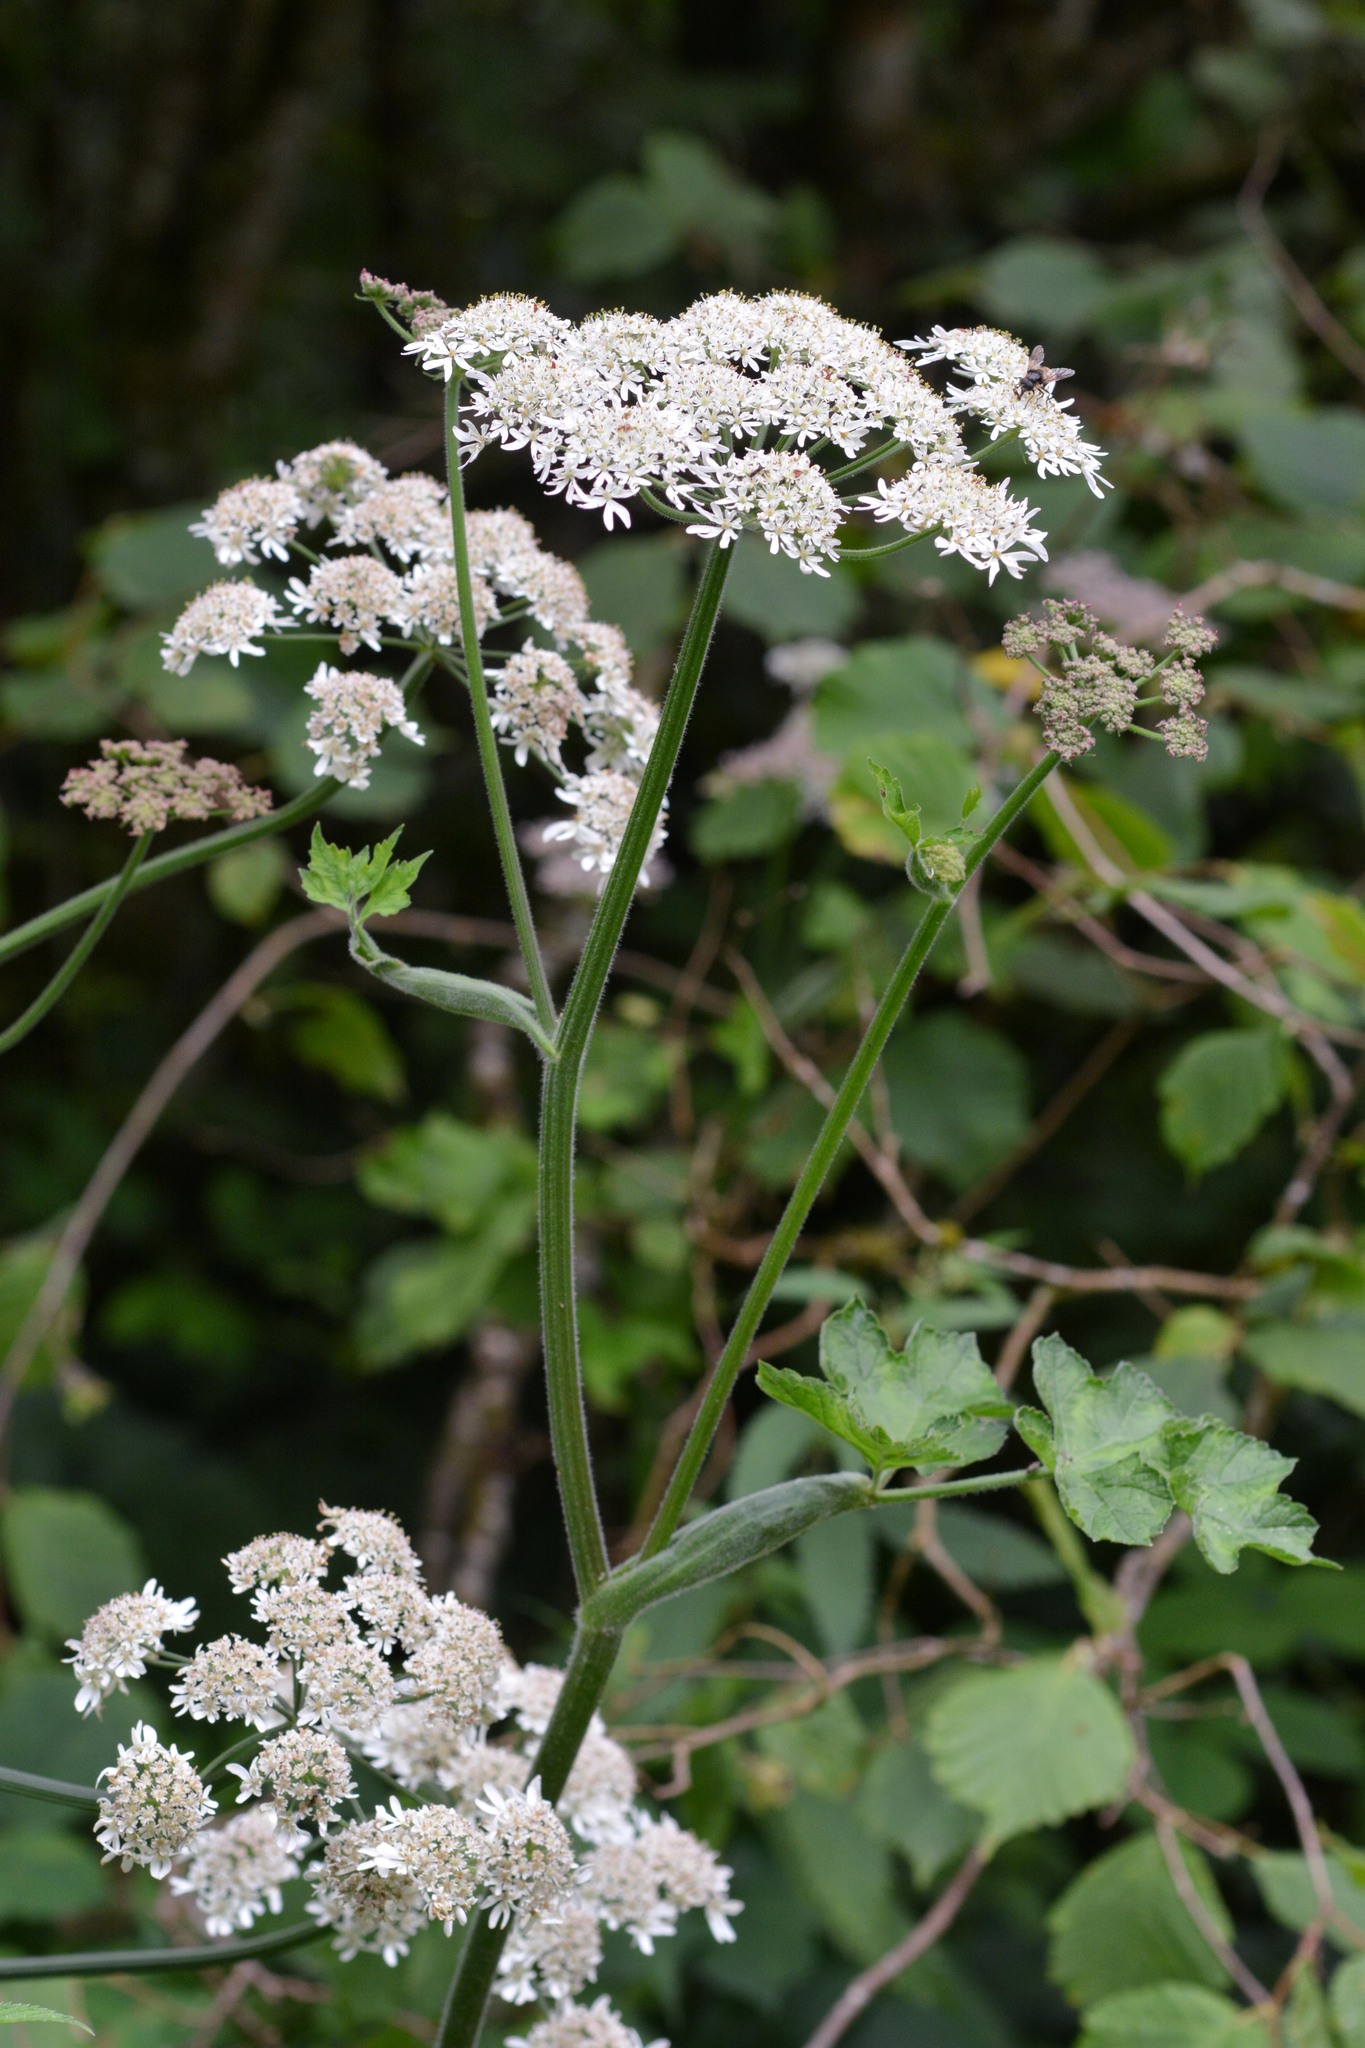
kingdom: Plantae
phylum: Tracheophyta
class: Magnoliopsida
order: Apiales
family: Apiaceae
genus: Heracleum
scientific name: Heracleum sphondylium
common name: Hogweed
